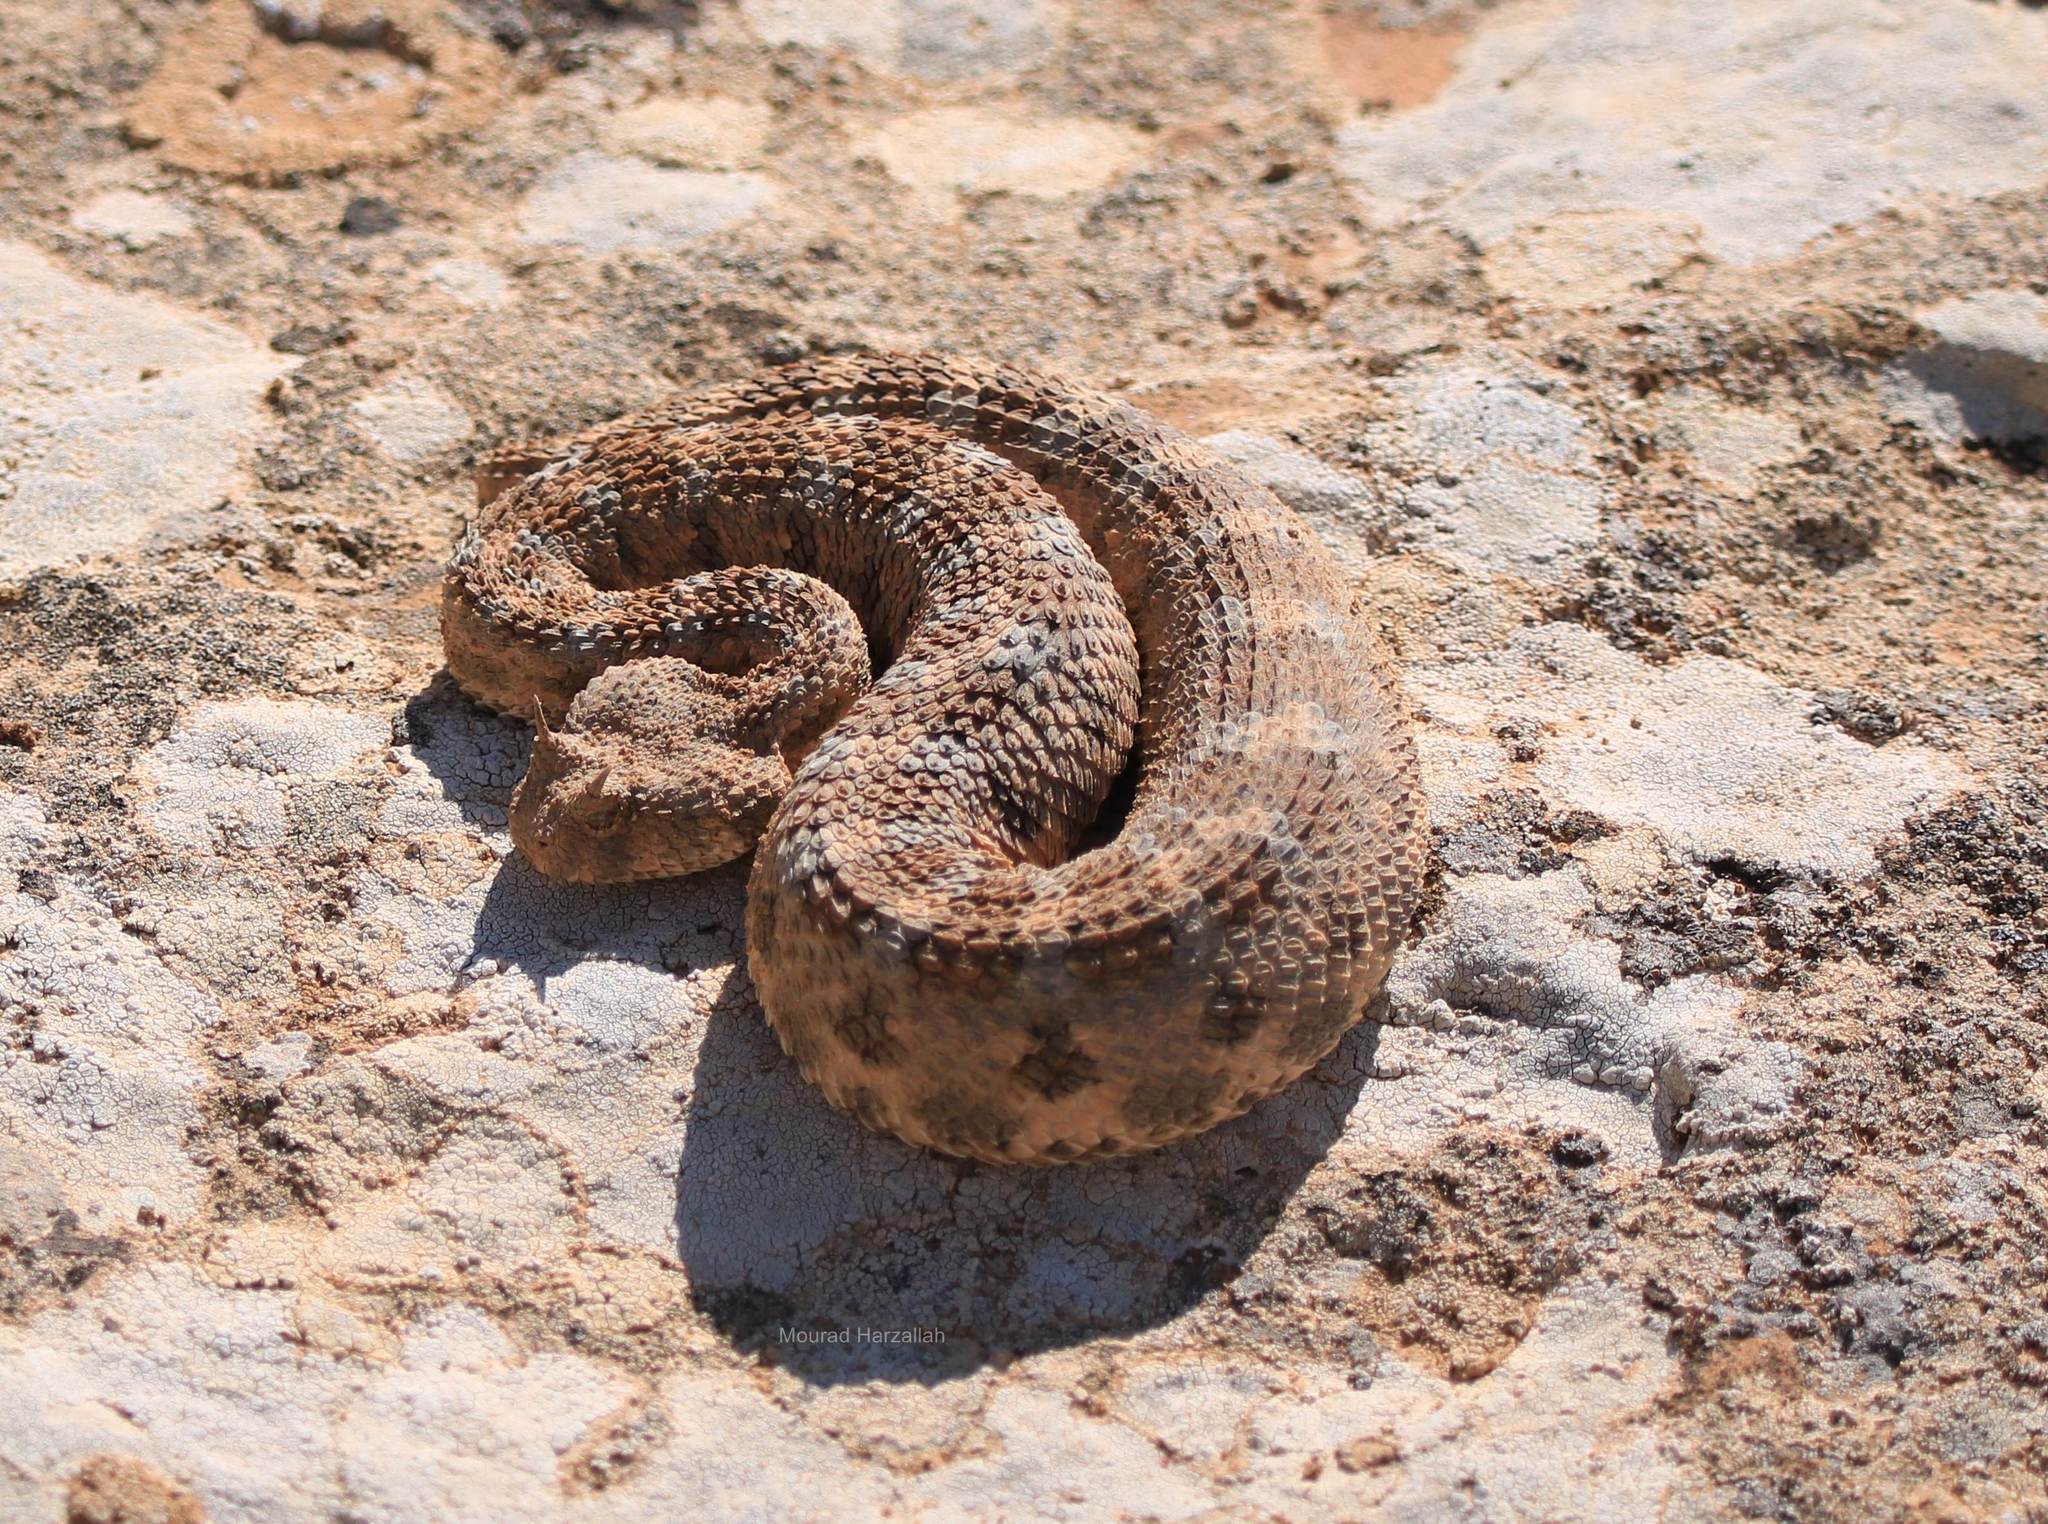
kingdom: Animalia
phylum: Chordata
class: Squamata
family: Viperidae
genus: Cerastes
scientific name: Cerastes cerastes
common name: Desert horned viper
